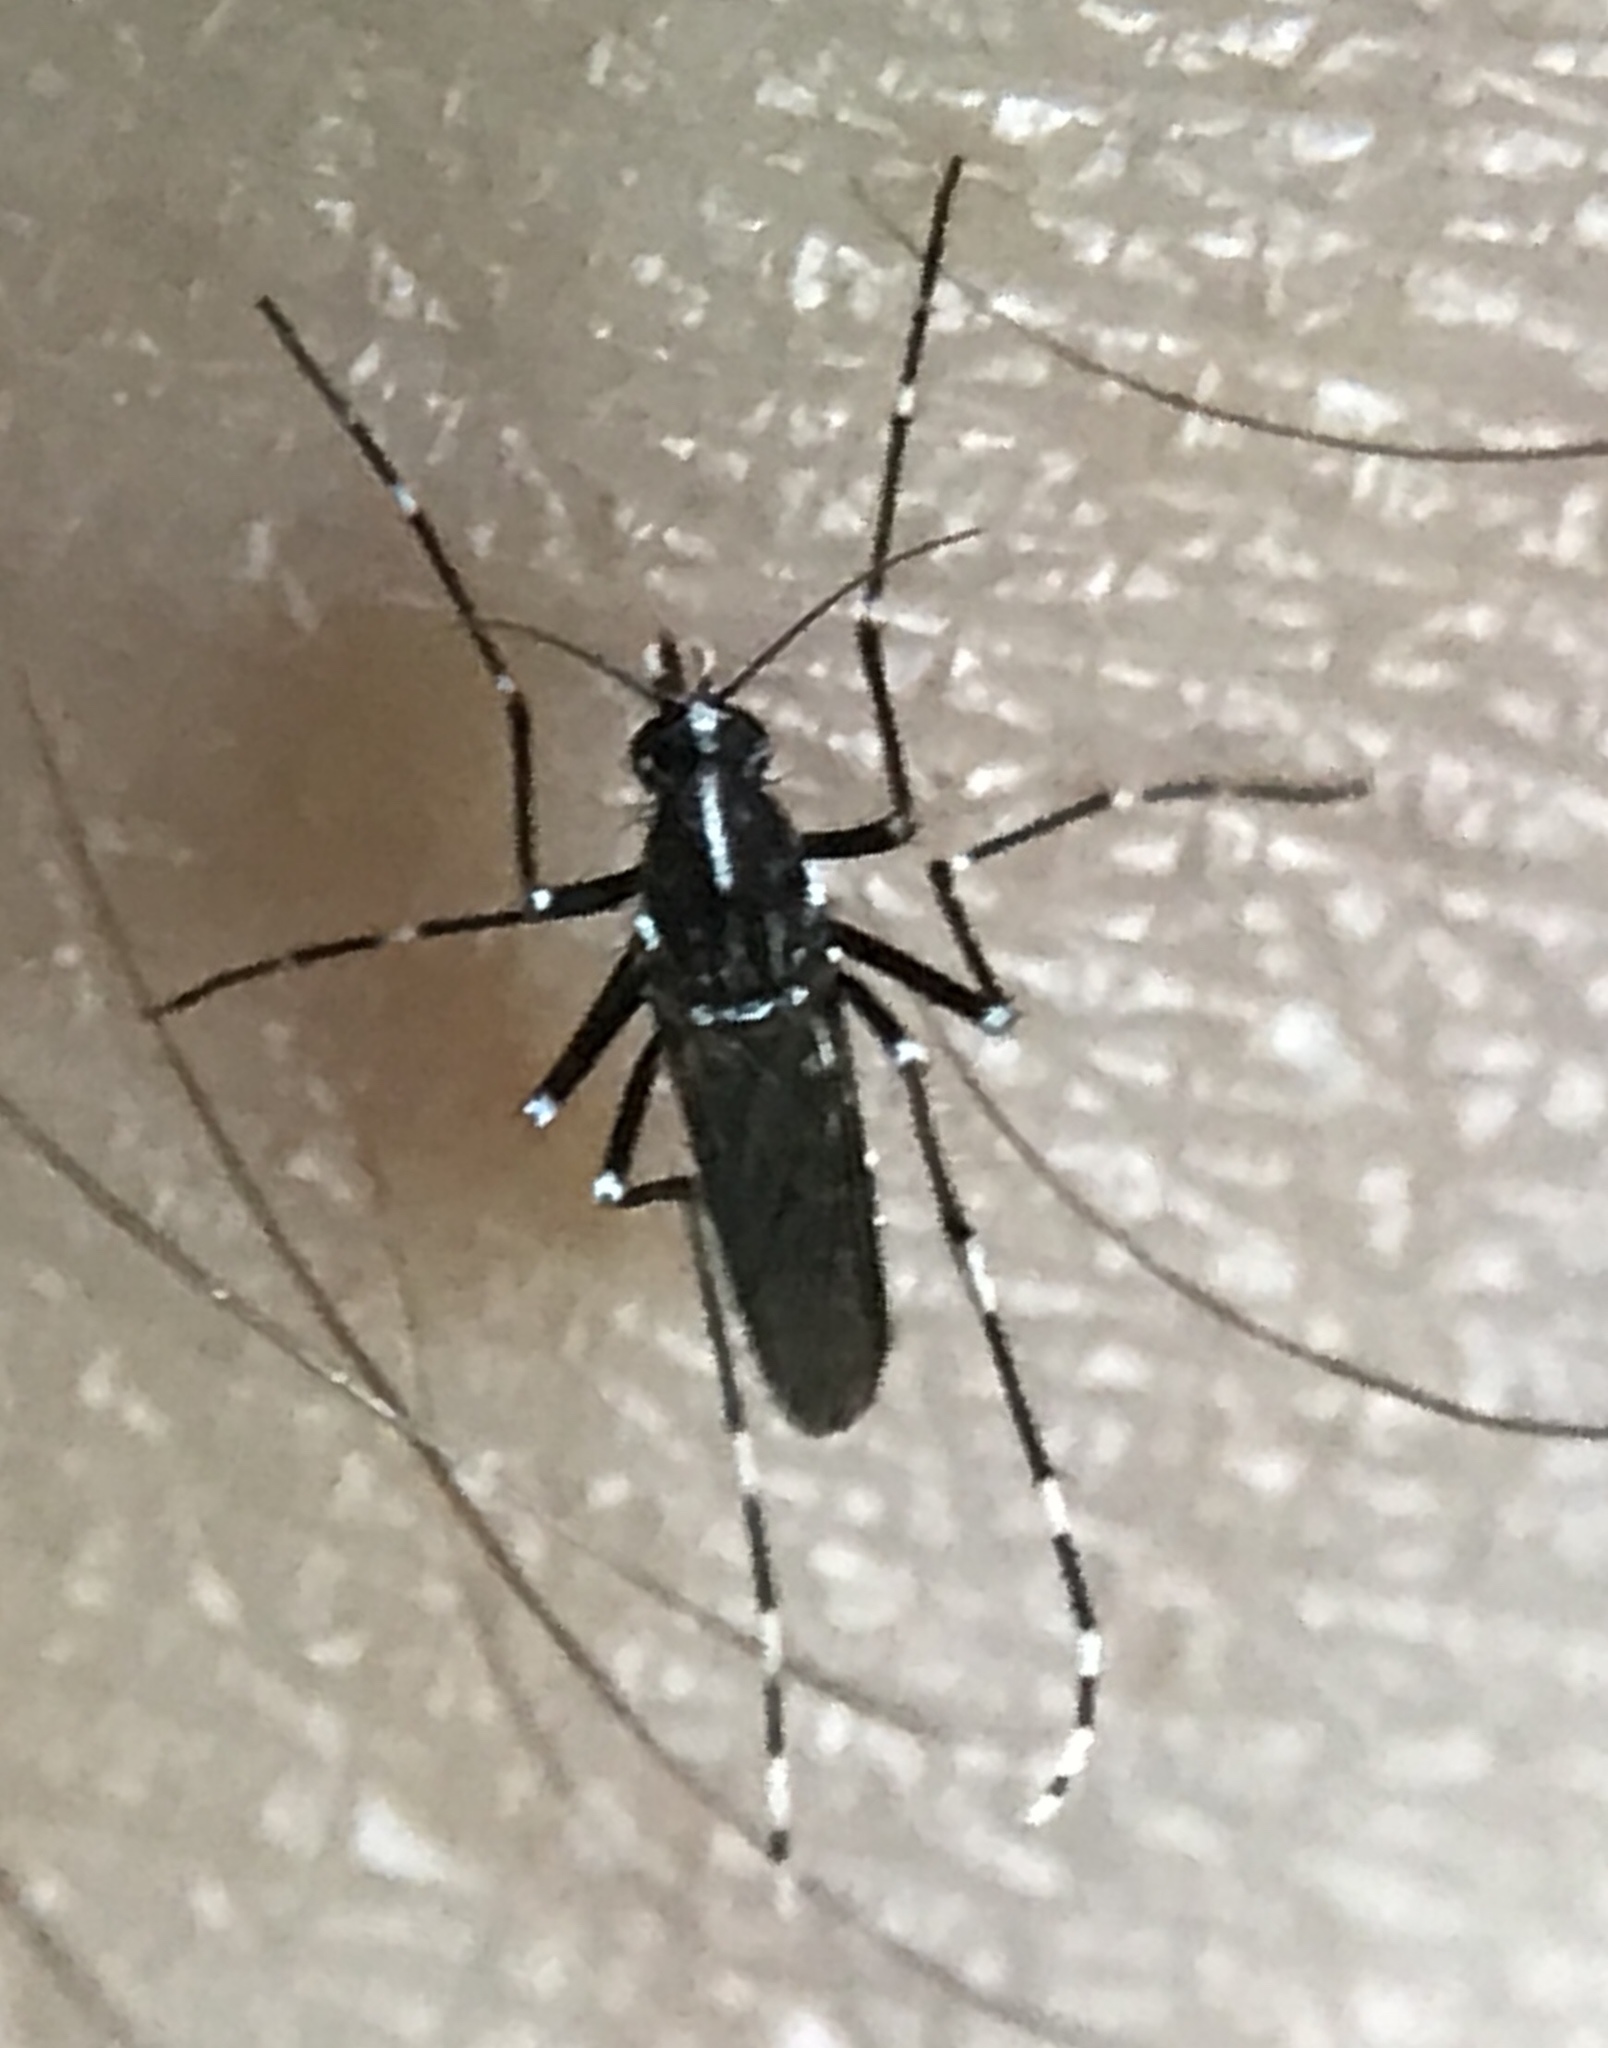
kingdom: Animalia
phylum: Arthropoda
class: Insecta
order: Diptera
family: Culicidae
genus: Aedes
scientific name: Aedes albopictus
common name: Tiger mosquito
